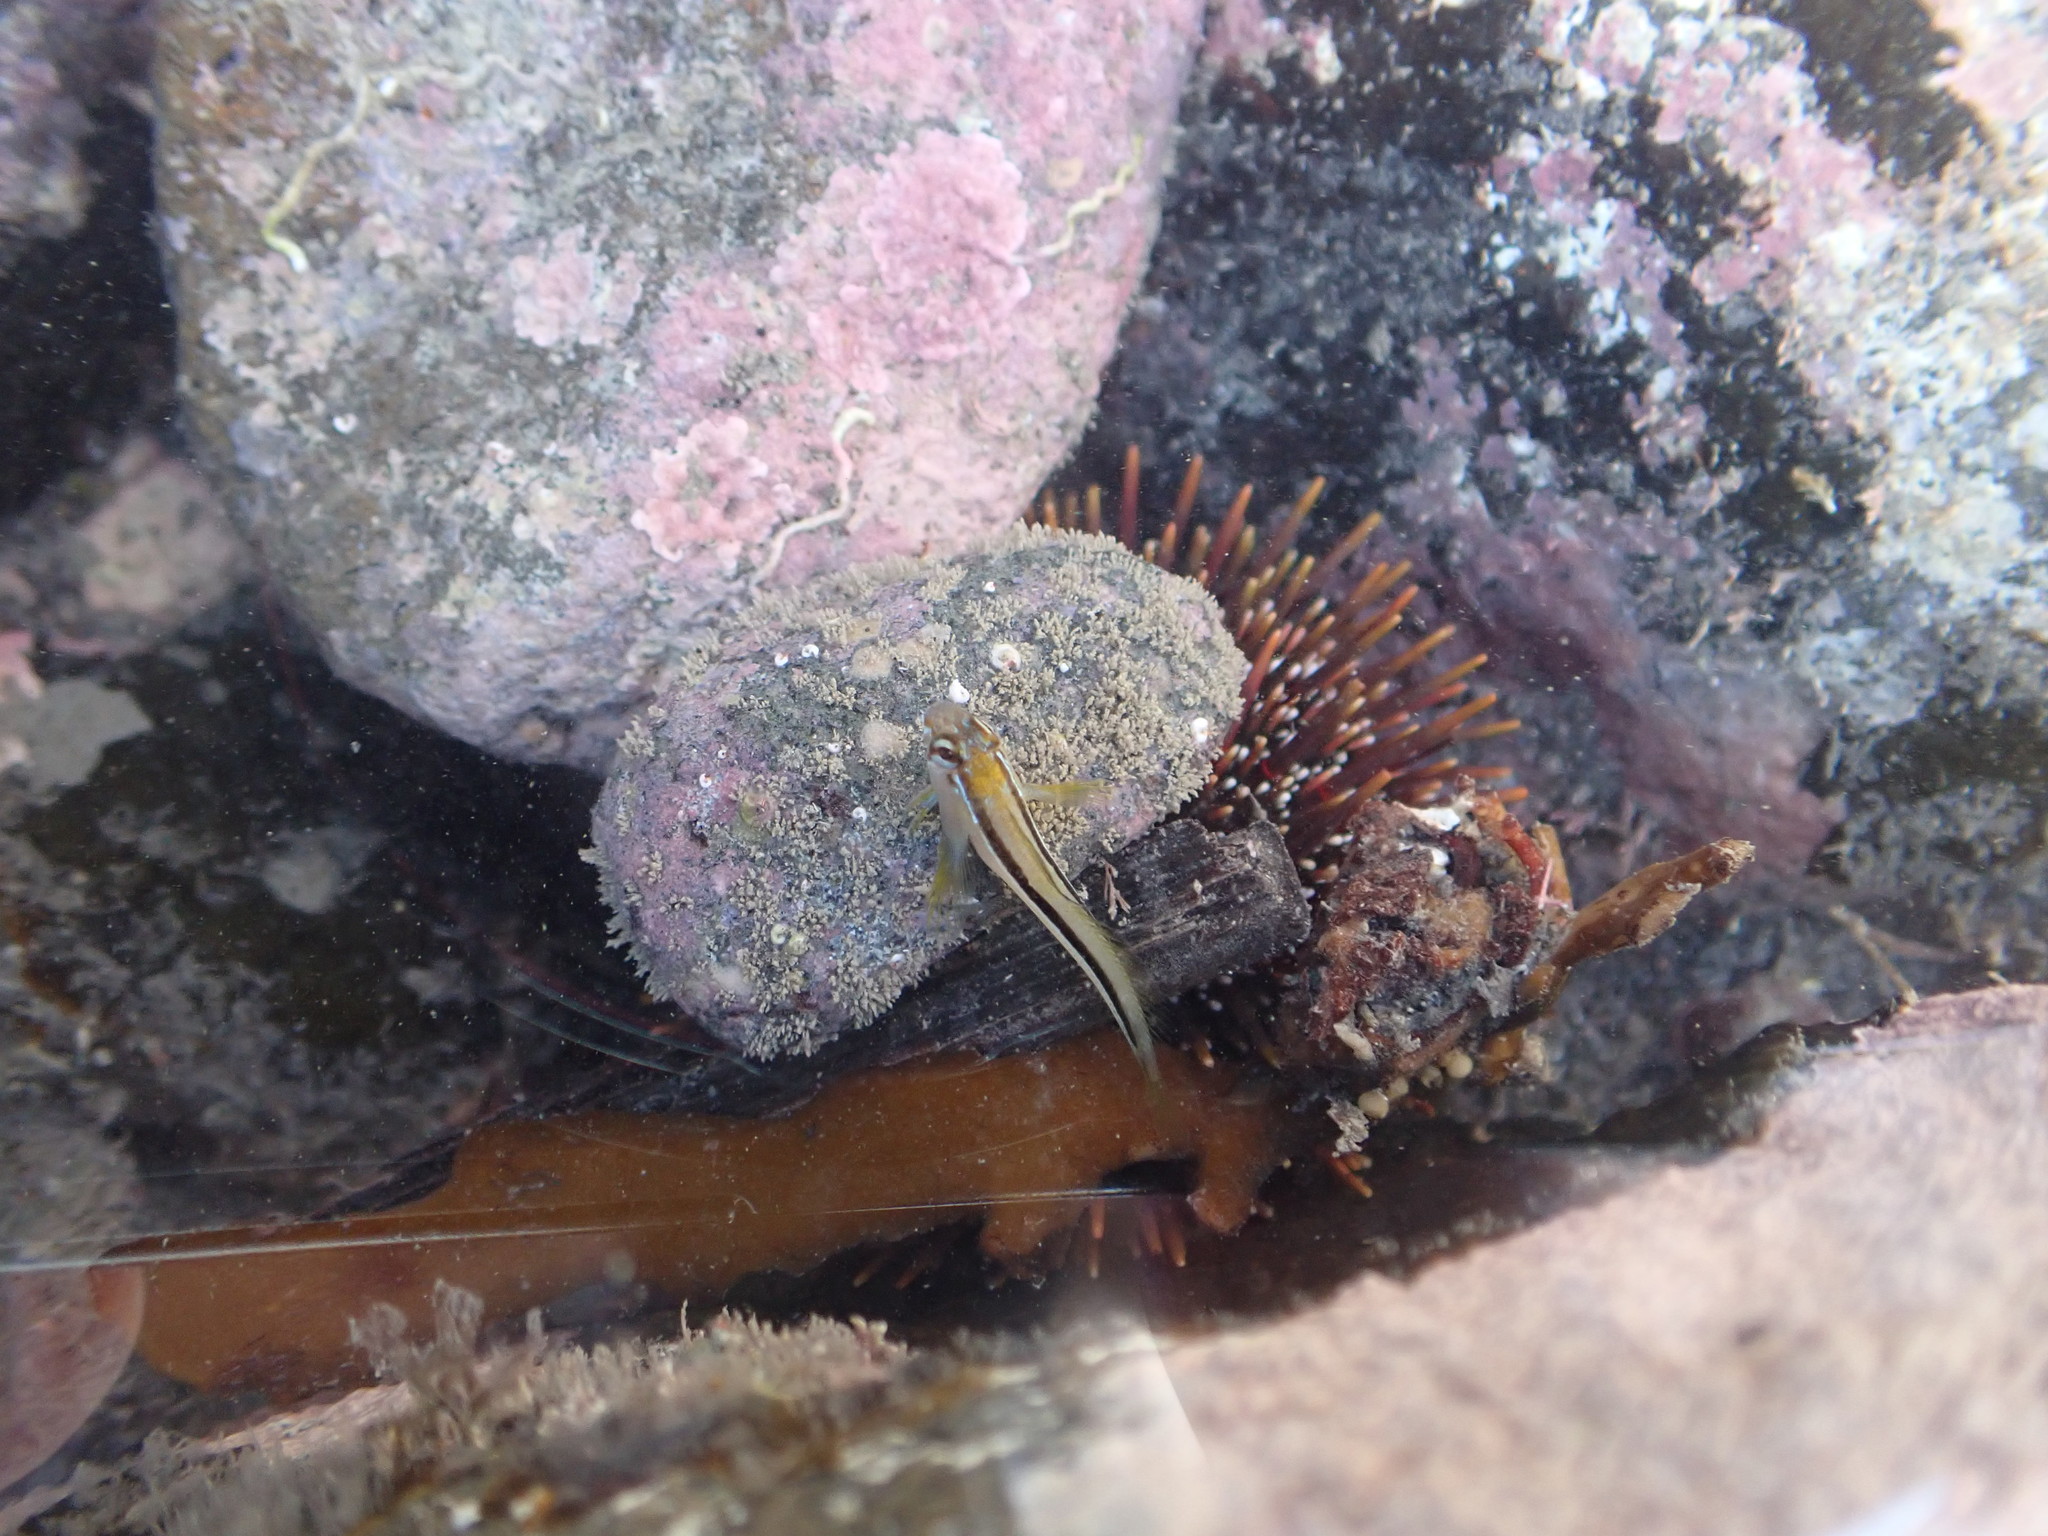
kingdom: Animalia
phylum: Chordata
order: Perciformes
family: Blenniidae
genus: Parablennius
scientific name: Parablennius laticlavius
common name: Crested blenny
